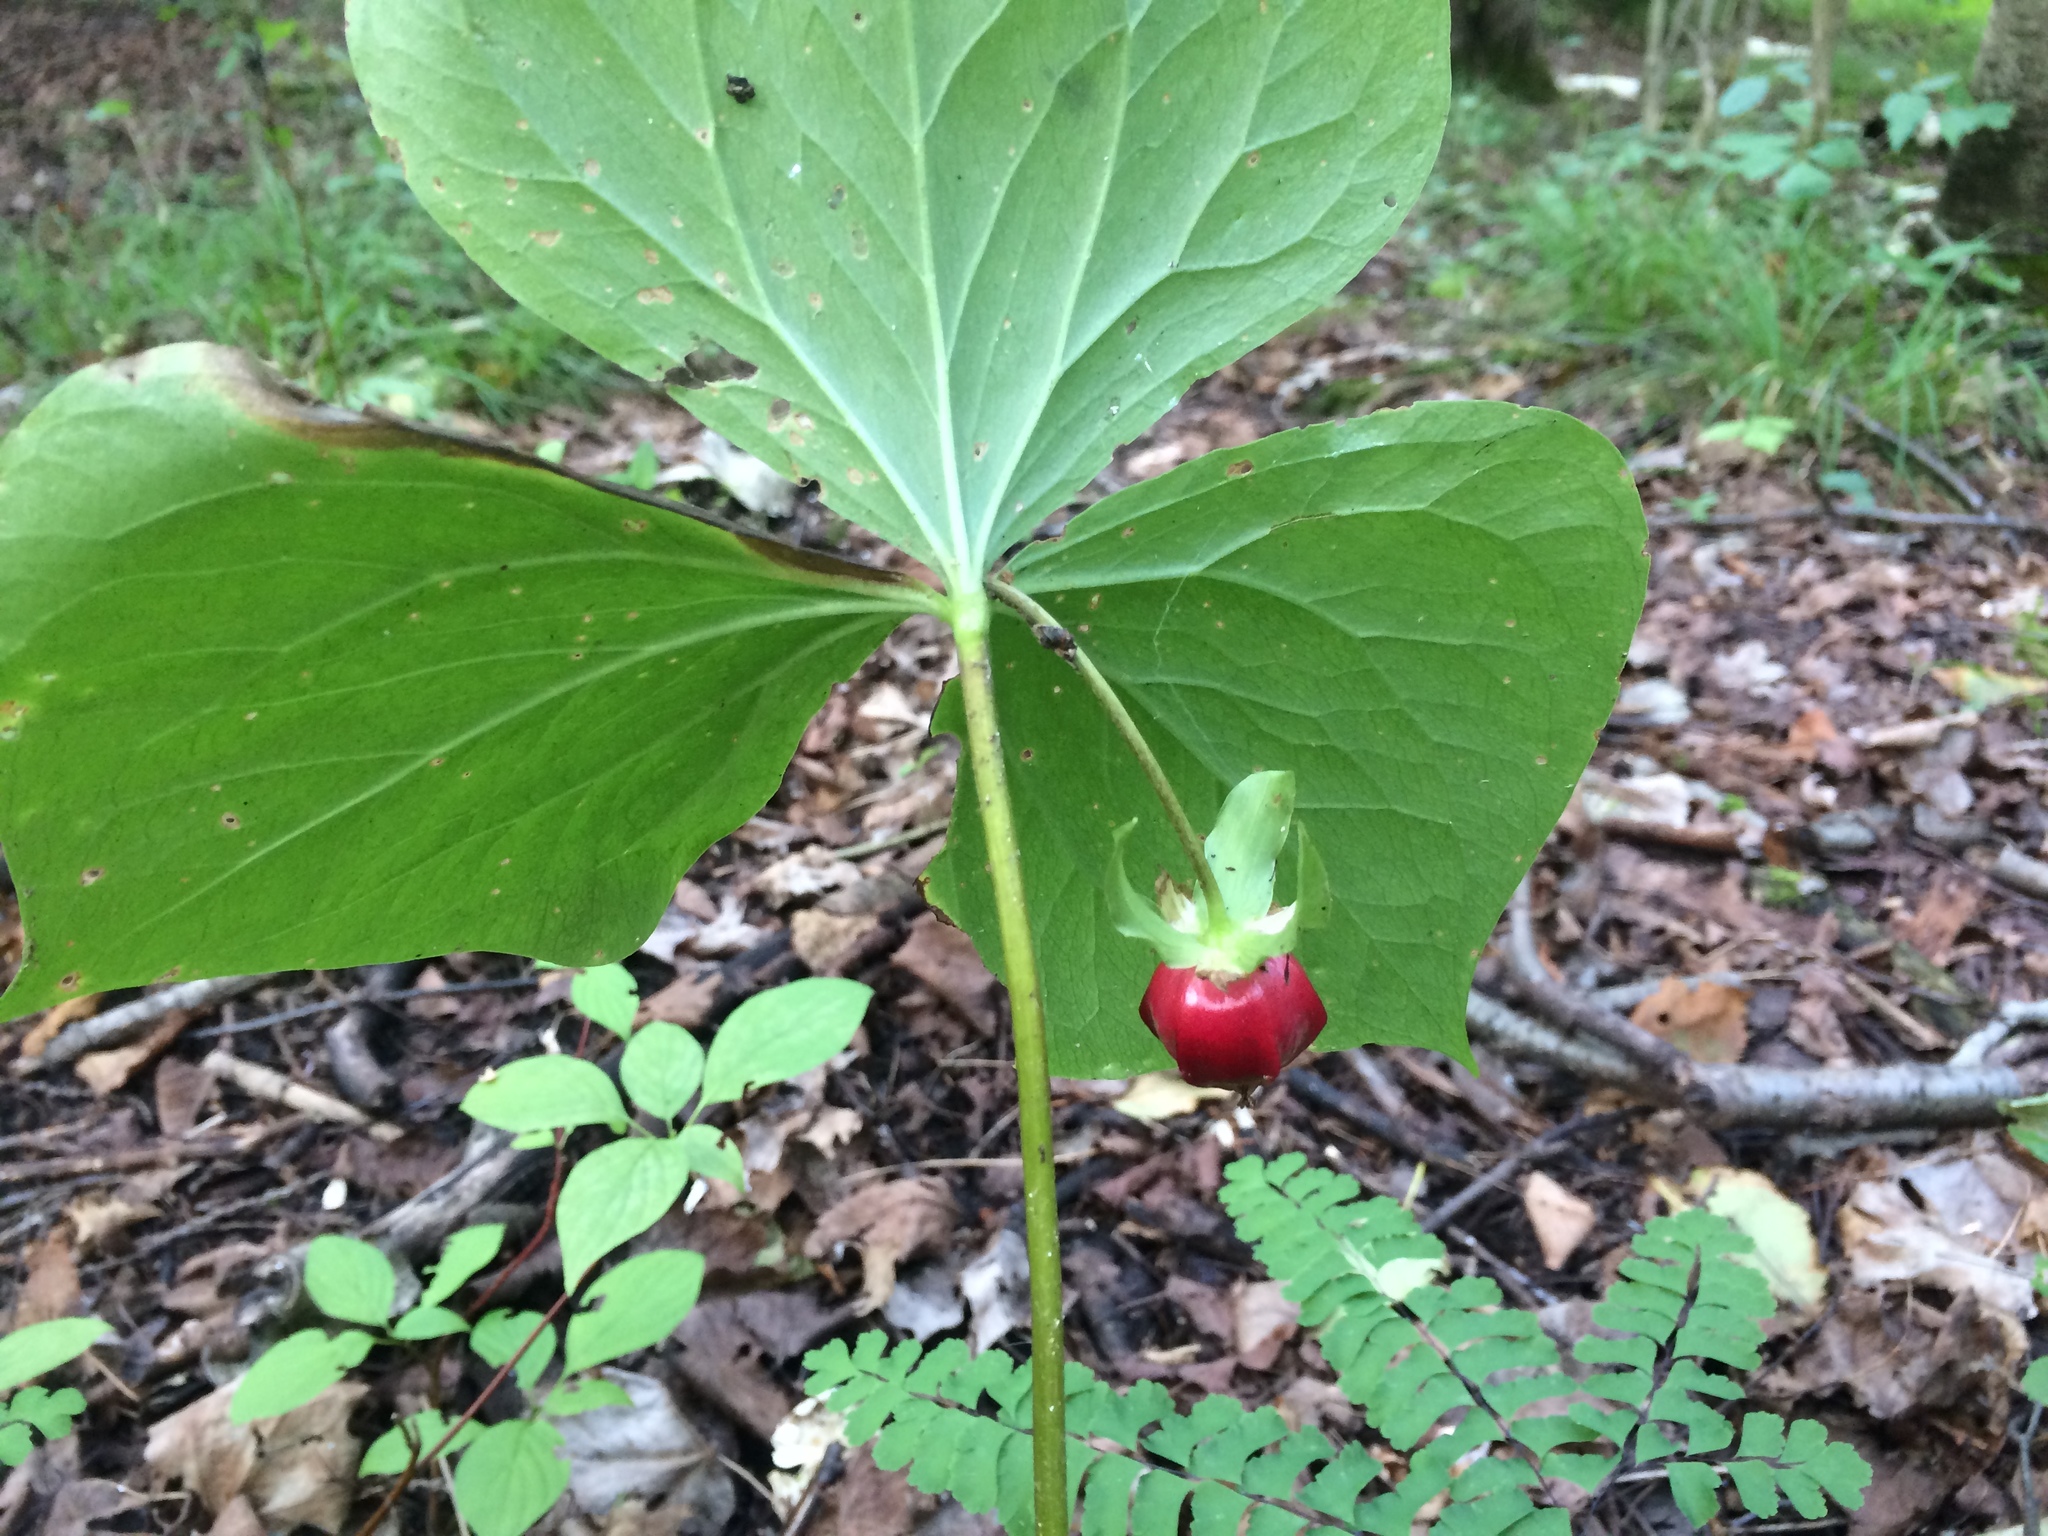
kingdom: Plantae
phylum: Tracheophyta
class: Liliopsida
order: Liliales
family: Melanthiaceae
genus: Trillium
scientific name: Trillium cernuum
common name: Nodding trillium
